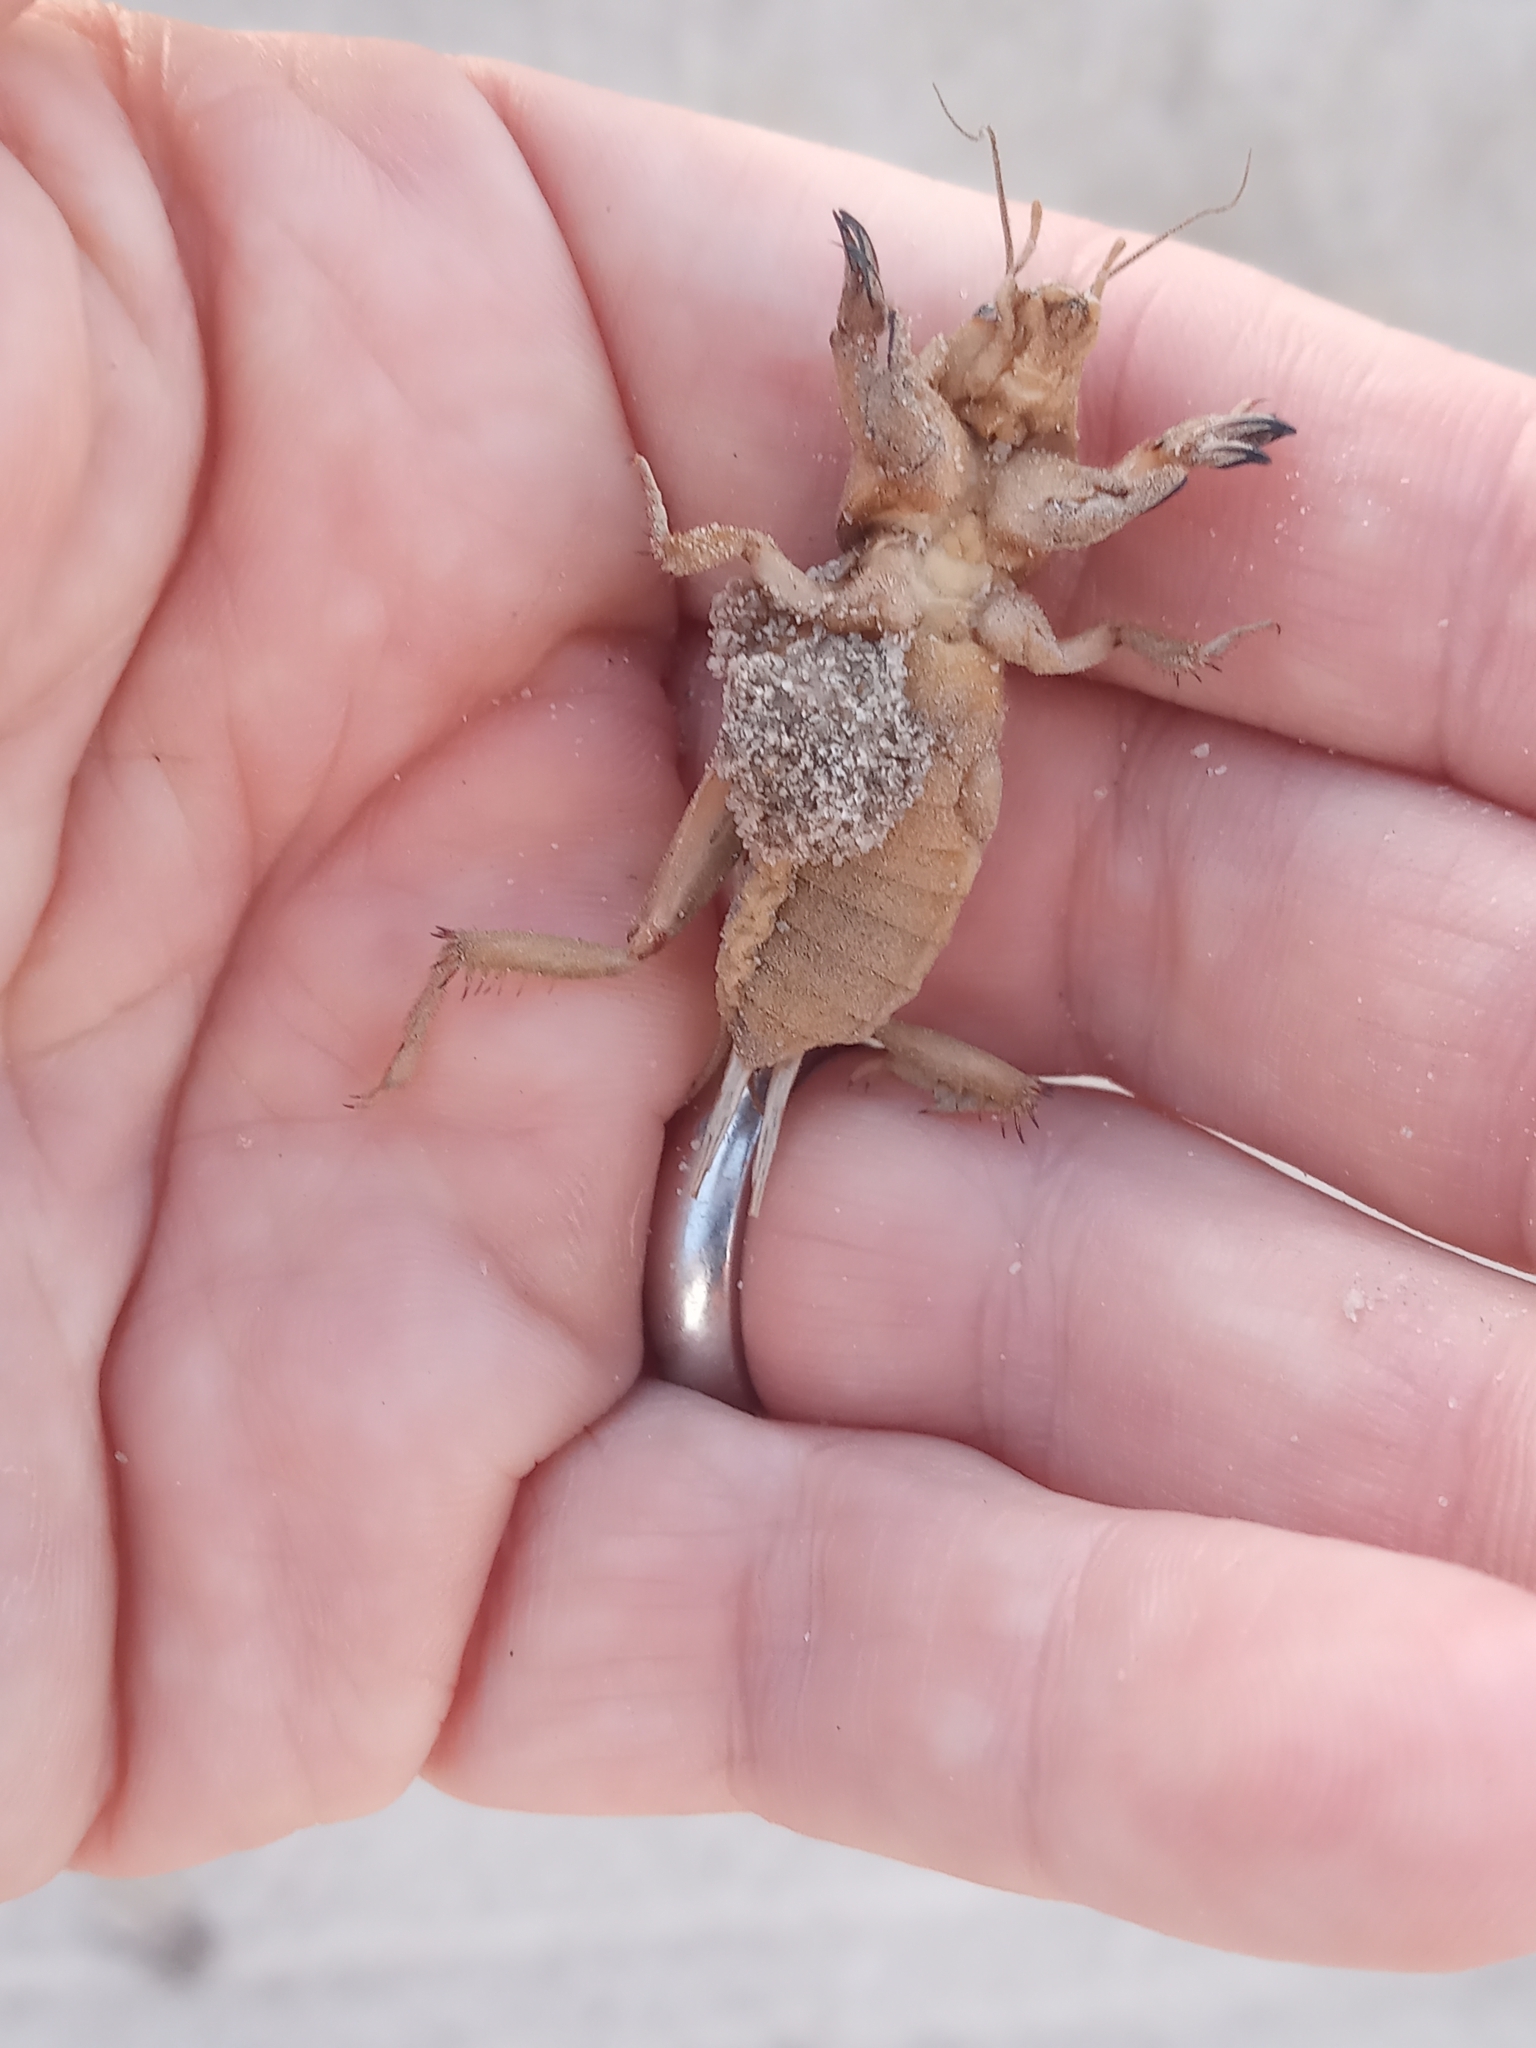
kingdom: Animalia
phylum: Arthropoda
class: Insecta
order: Orthoptera
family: Gryllotalpidae
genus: Neoscapteriscus
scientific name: Neoscapteriscus vicinus
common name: Tawny mole cricket
